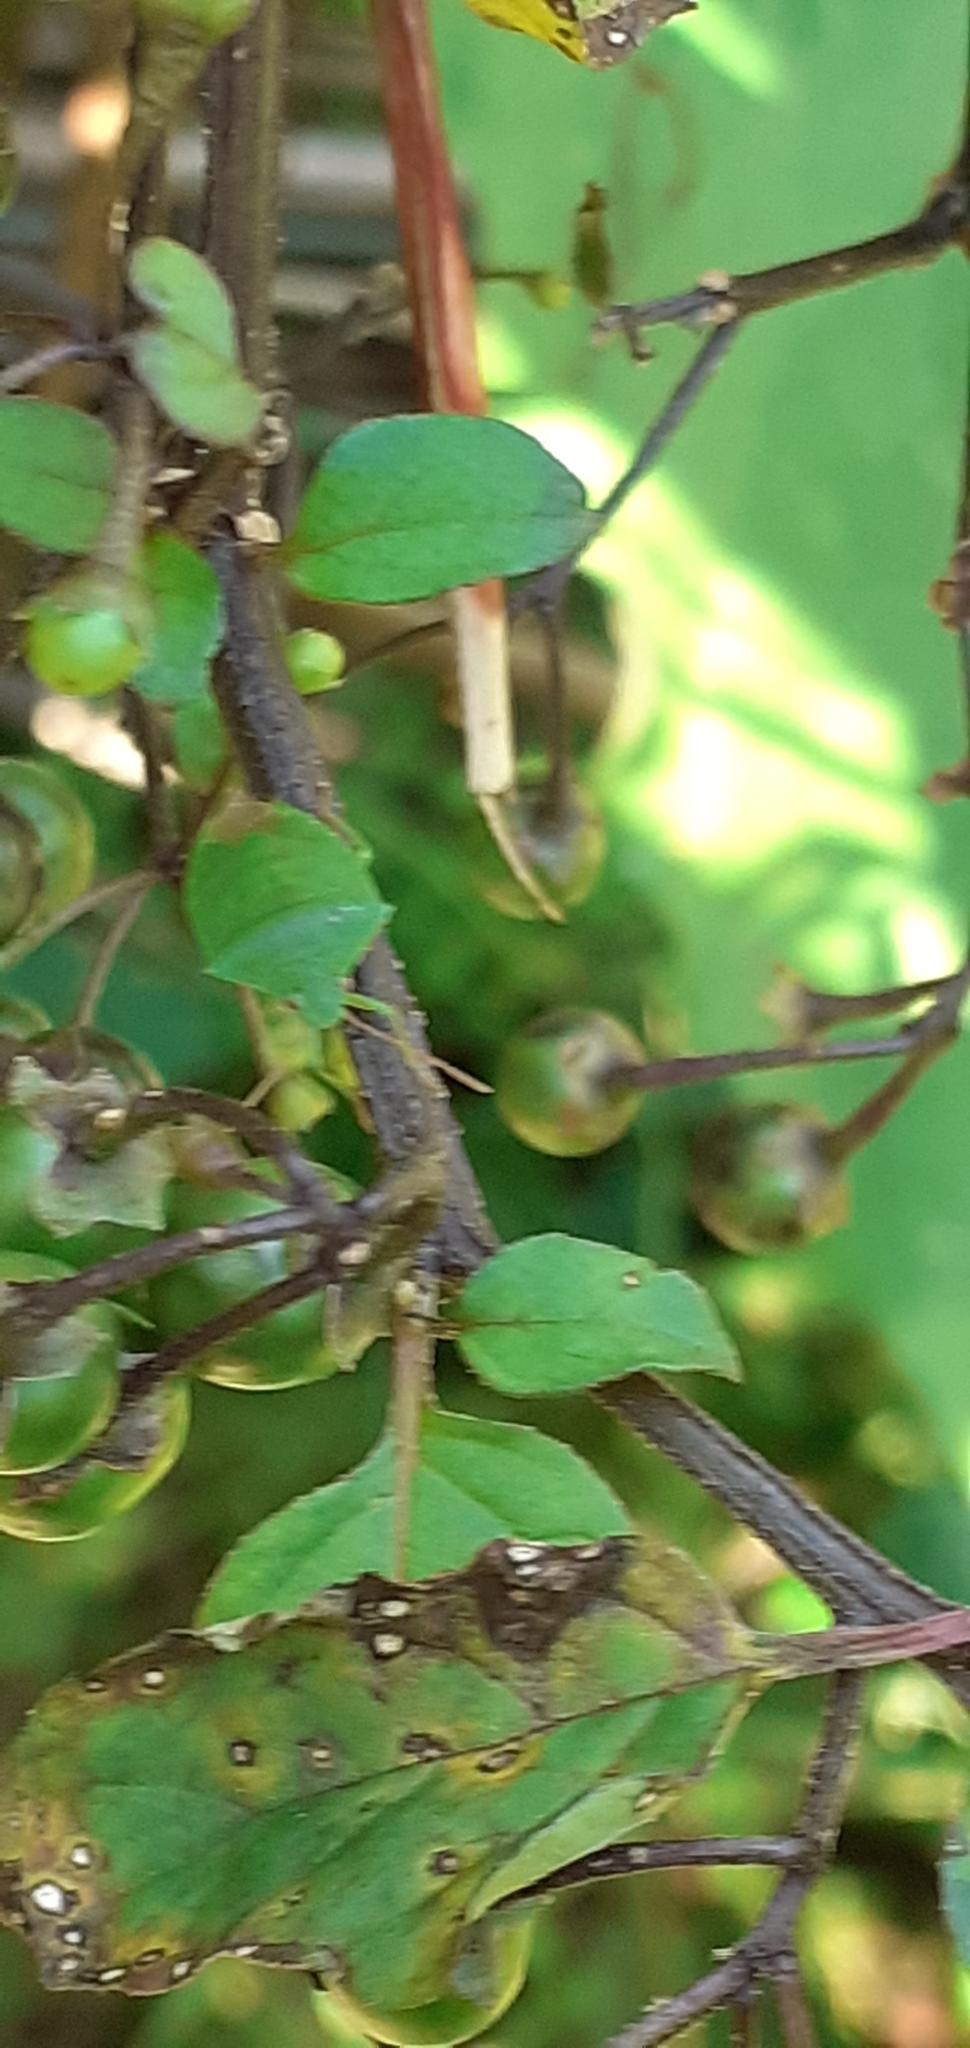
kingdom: Animalia
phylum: Arthropoda
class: Insecta
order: Hemiptera
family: Pentatomidae
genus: Cuspicona
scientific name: Cuspicona simplex
